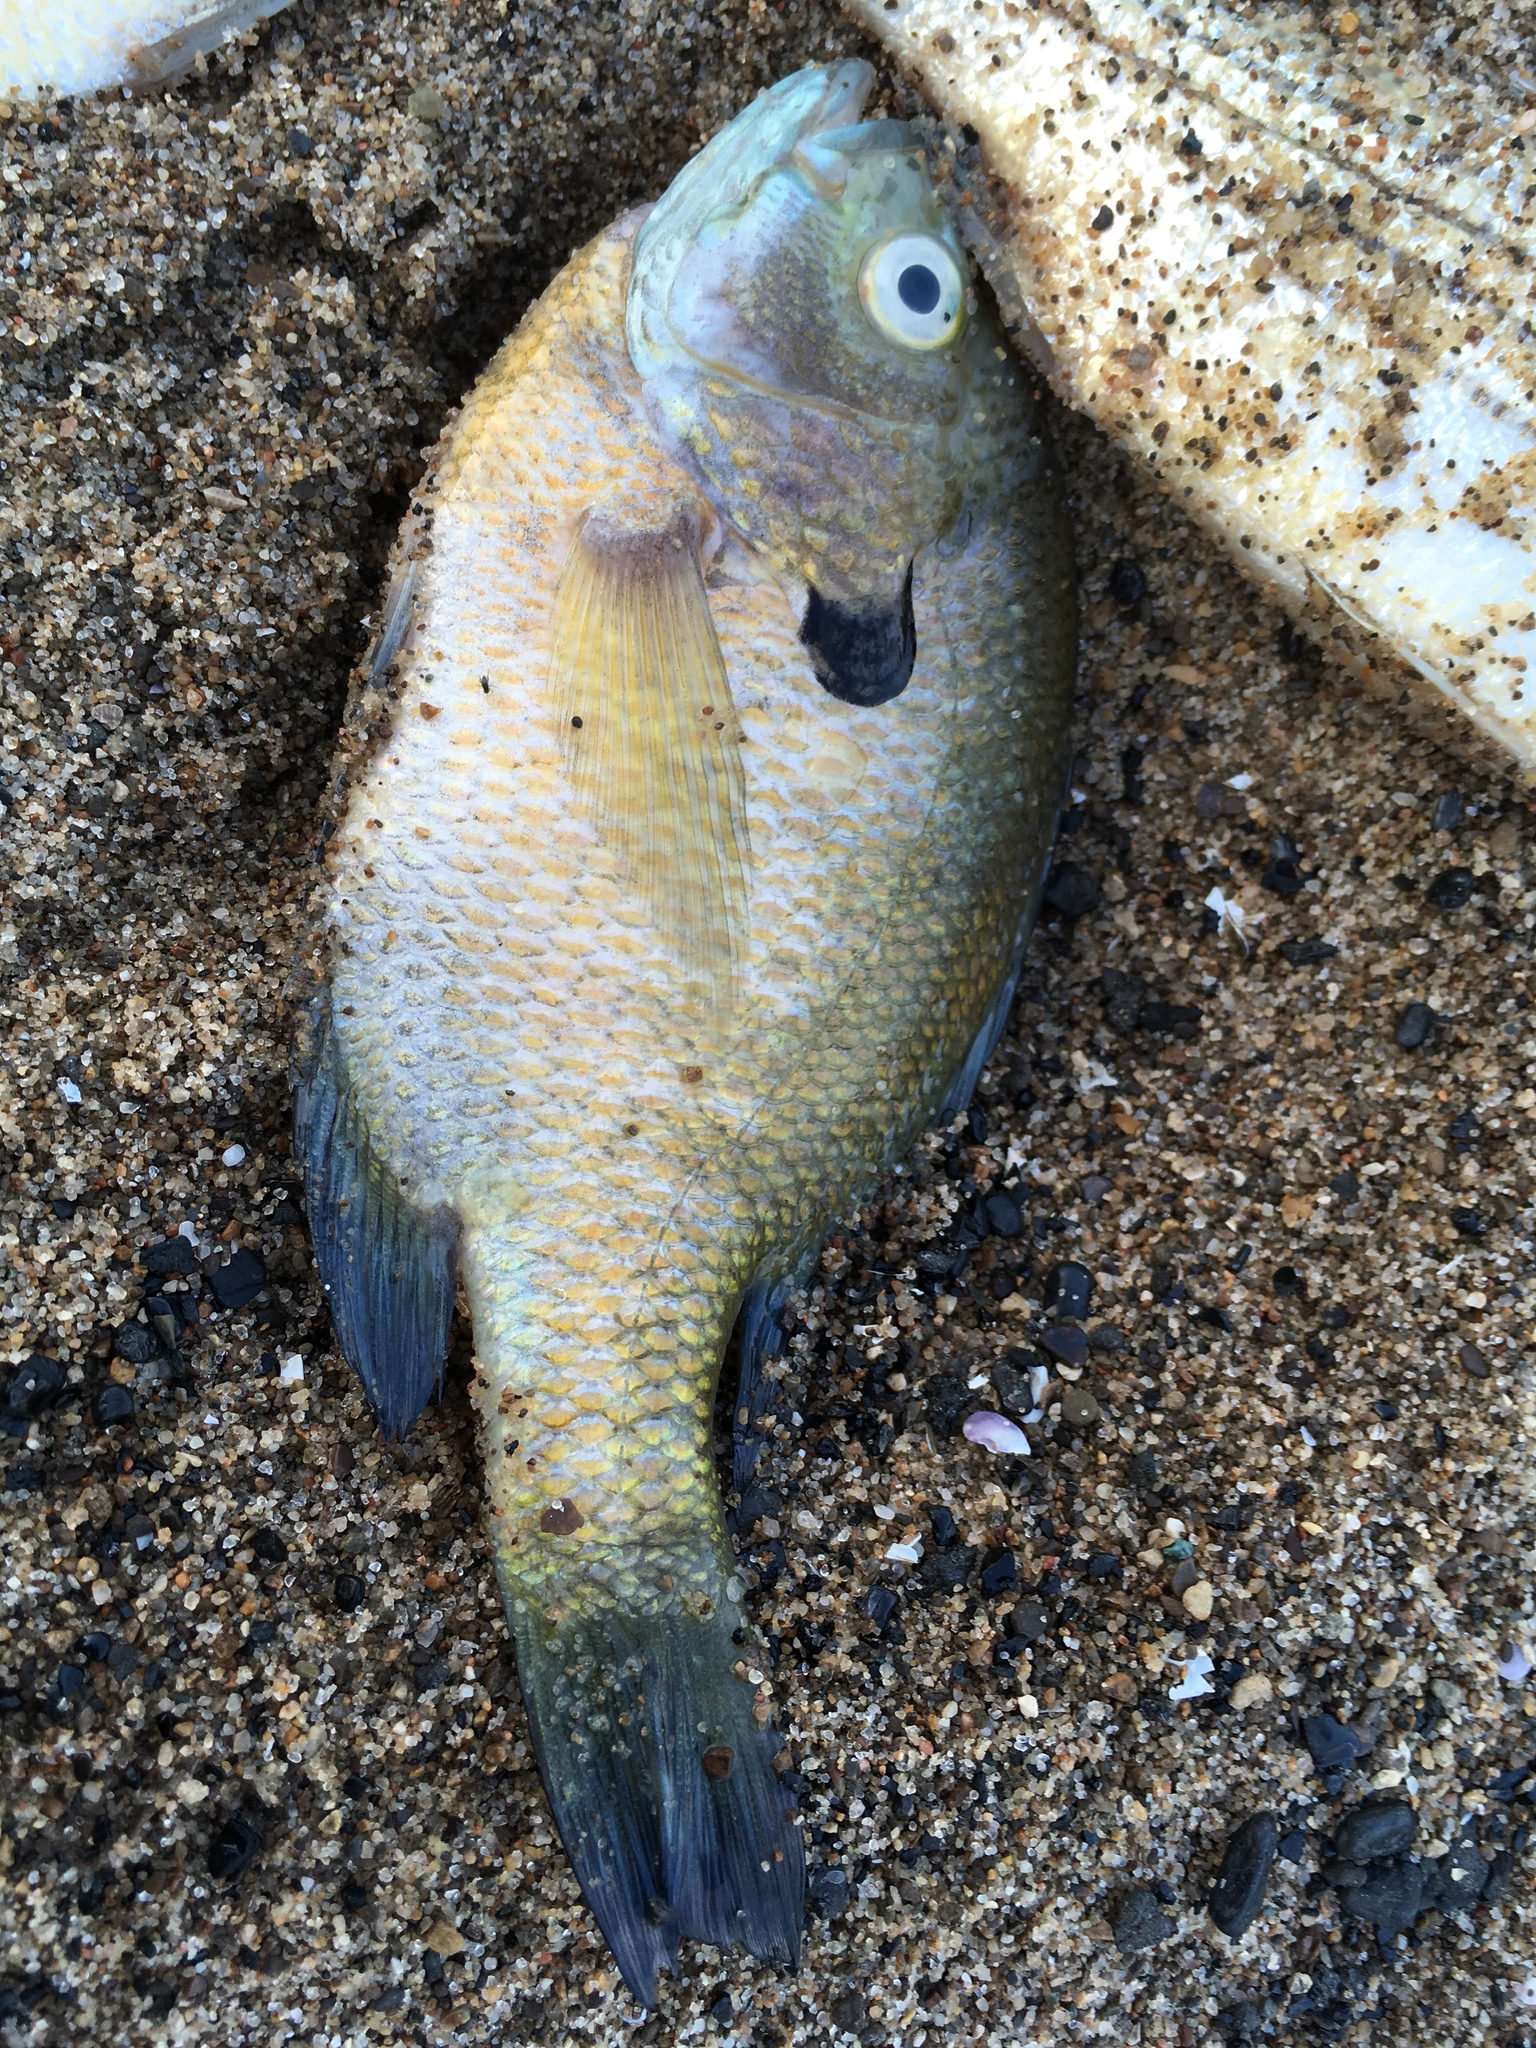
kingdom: Animalia
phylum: Chordata
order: Perciformes
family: Centrarchidae
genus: Lepomis
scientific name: Lepomis macrochirus
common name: Bluegill
